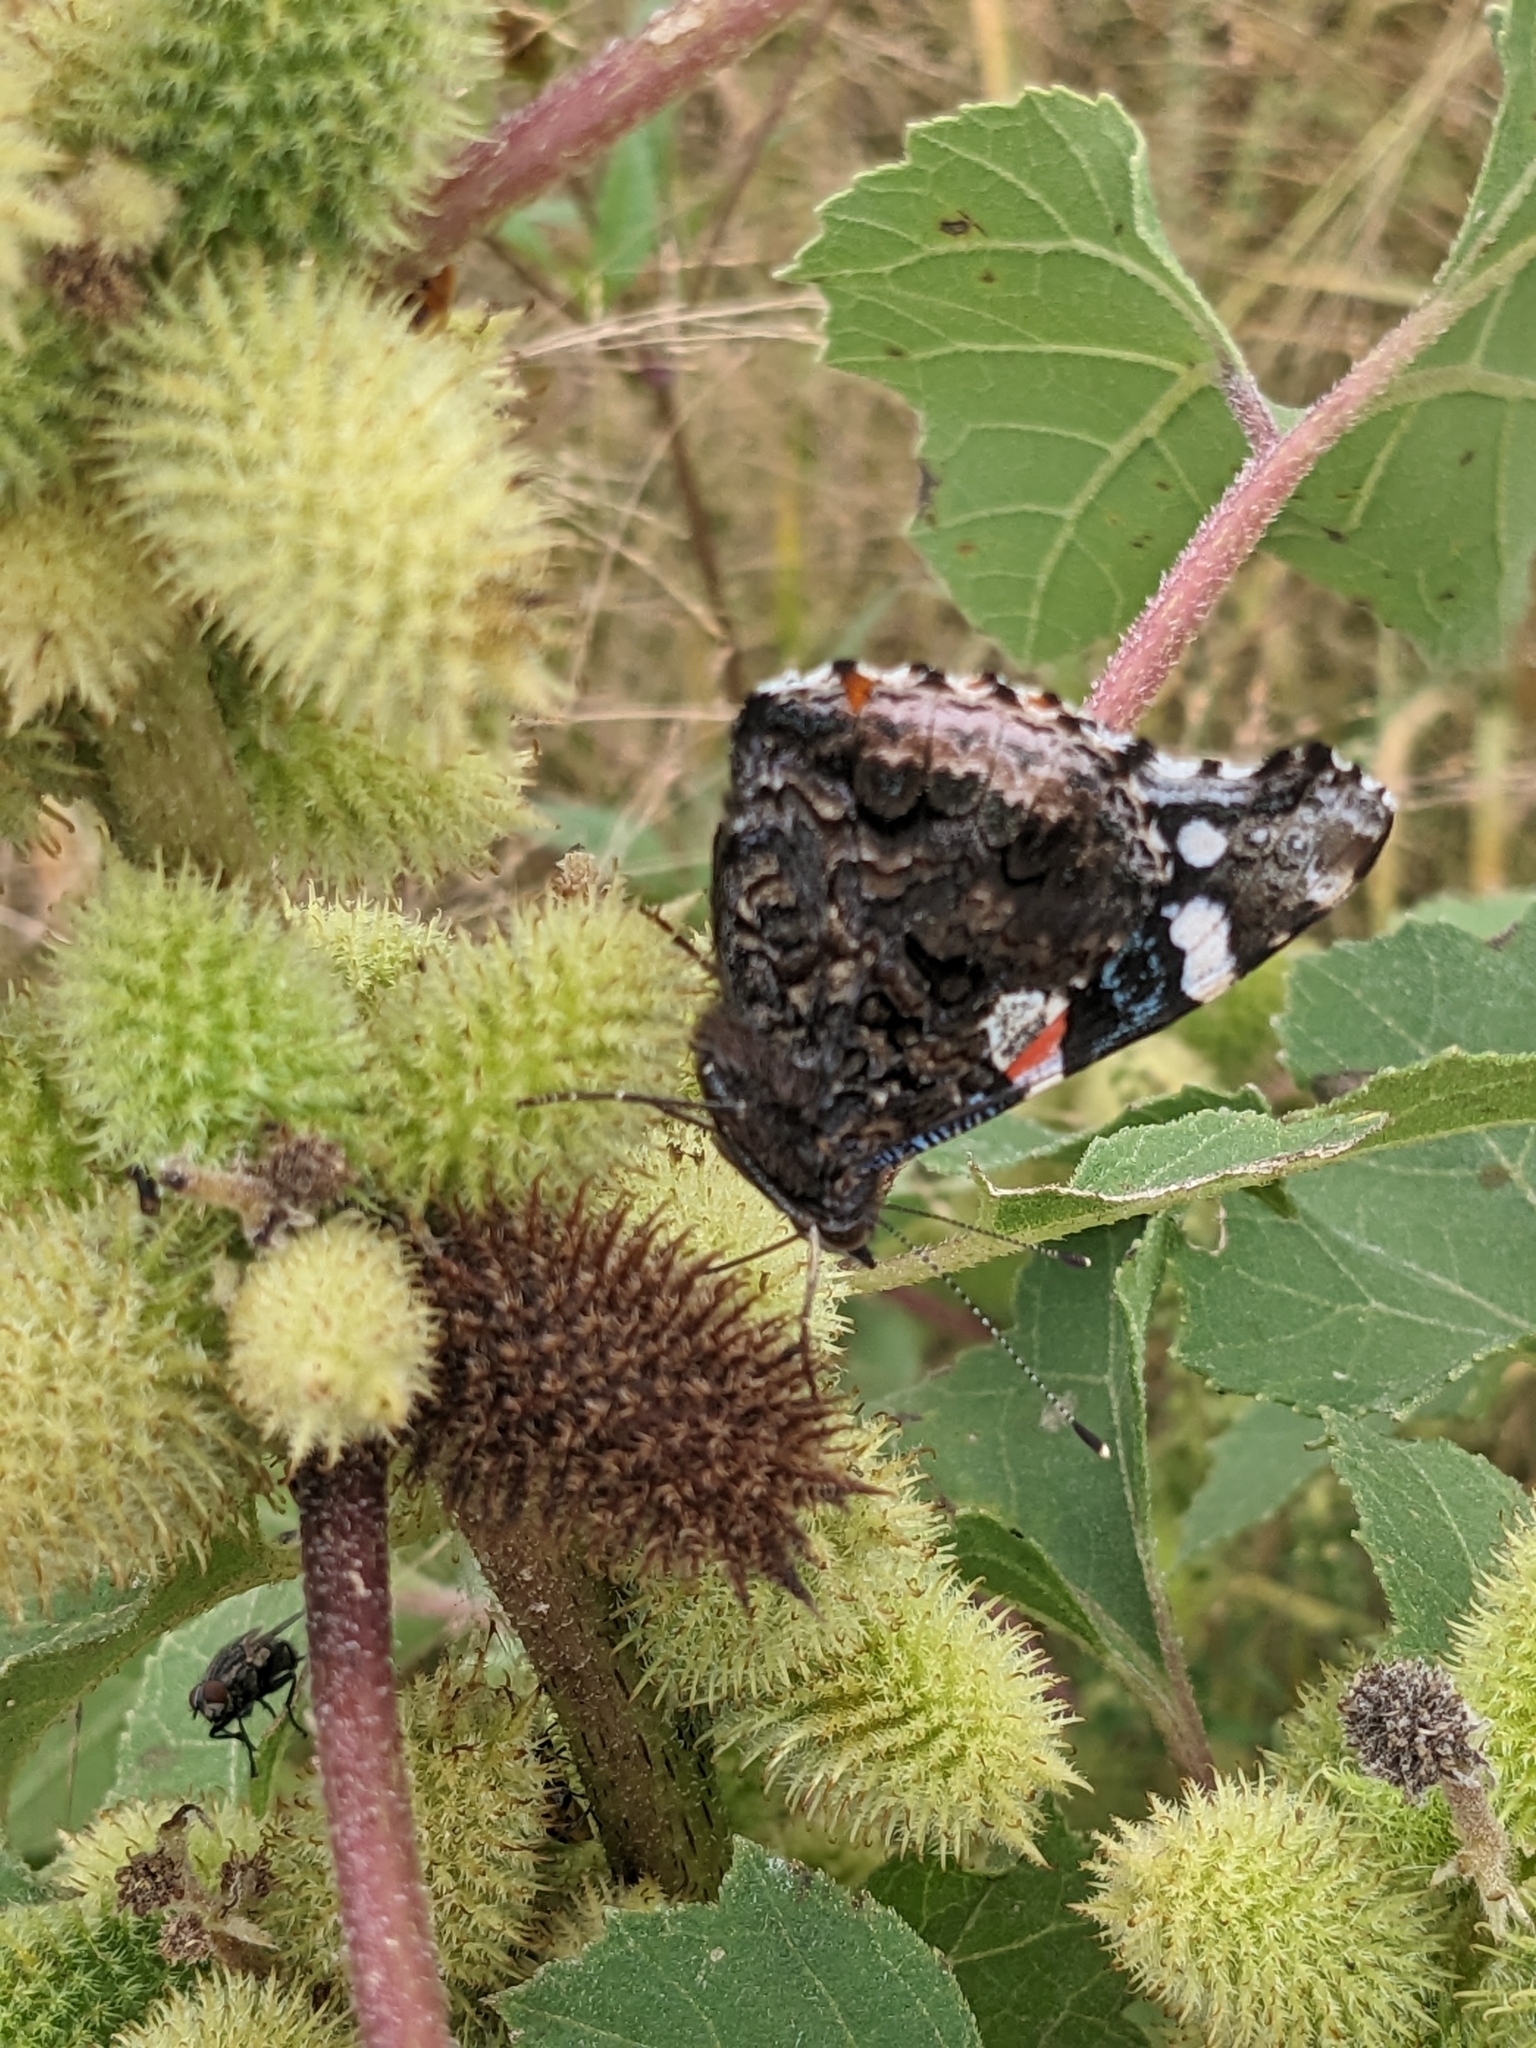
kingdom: Animalia
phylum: Arthropoda
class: Insecta
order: Lepidoptera
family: Nymphalidae
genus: Vanessa
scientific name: Vanessa atalanta
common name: Red admiral
